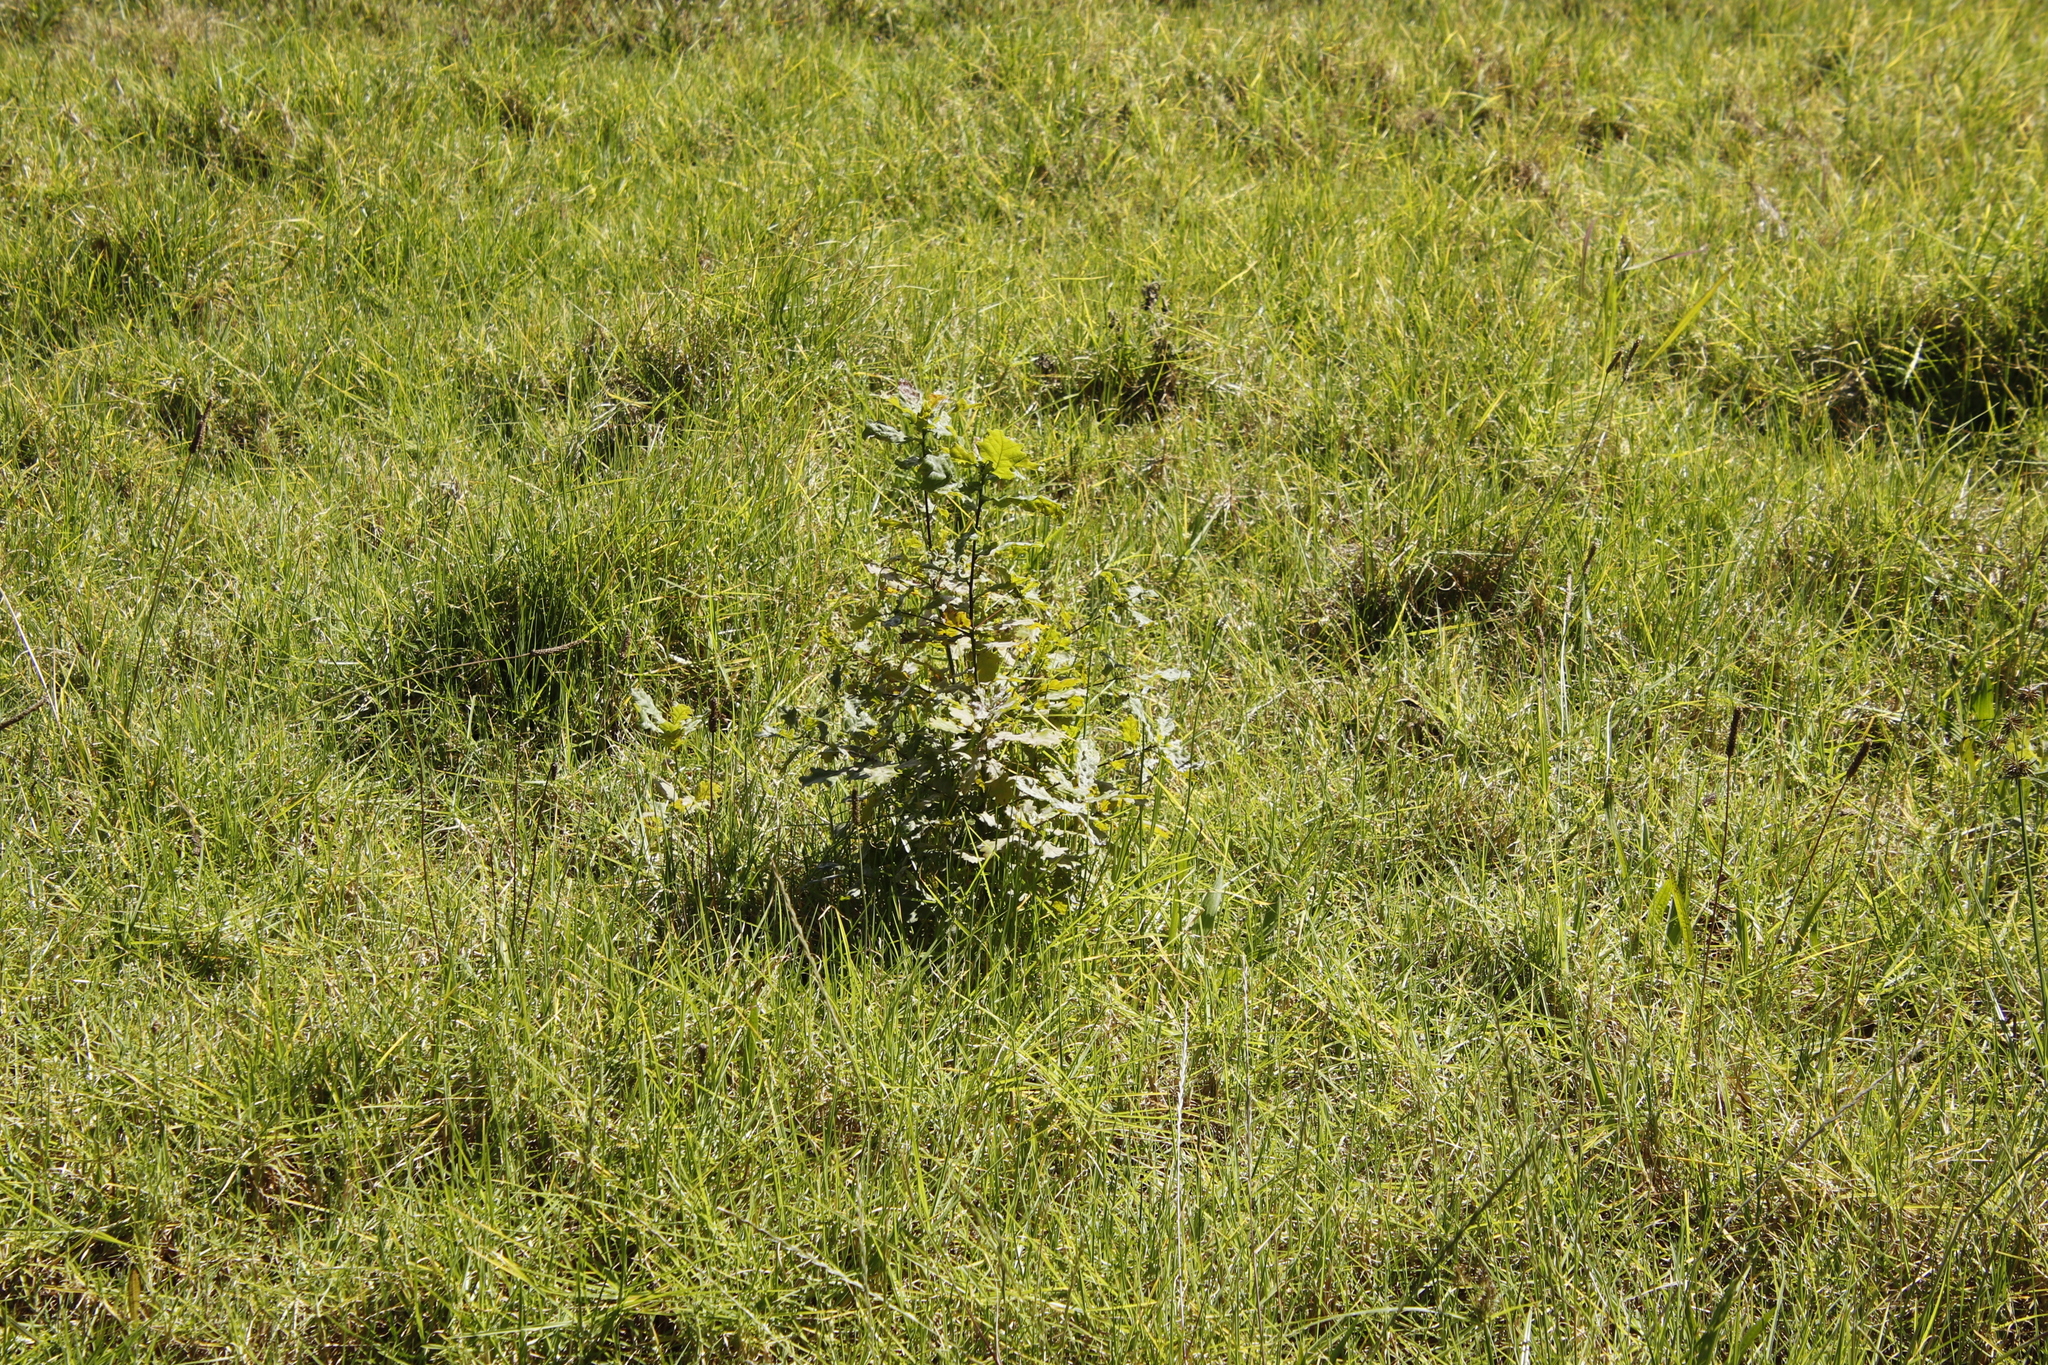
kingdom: Plantae
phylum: Tracheophyta
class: Magnoliopsida
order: Fagales
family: Fagaceae
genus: Quercus
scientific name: Quercus robur
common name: Pedunculate oak
